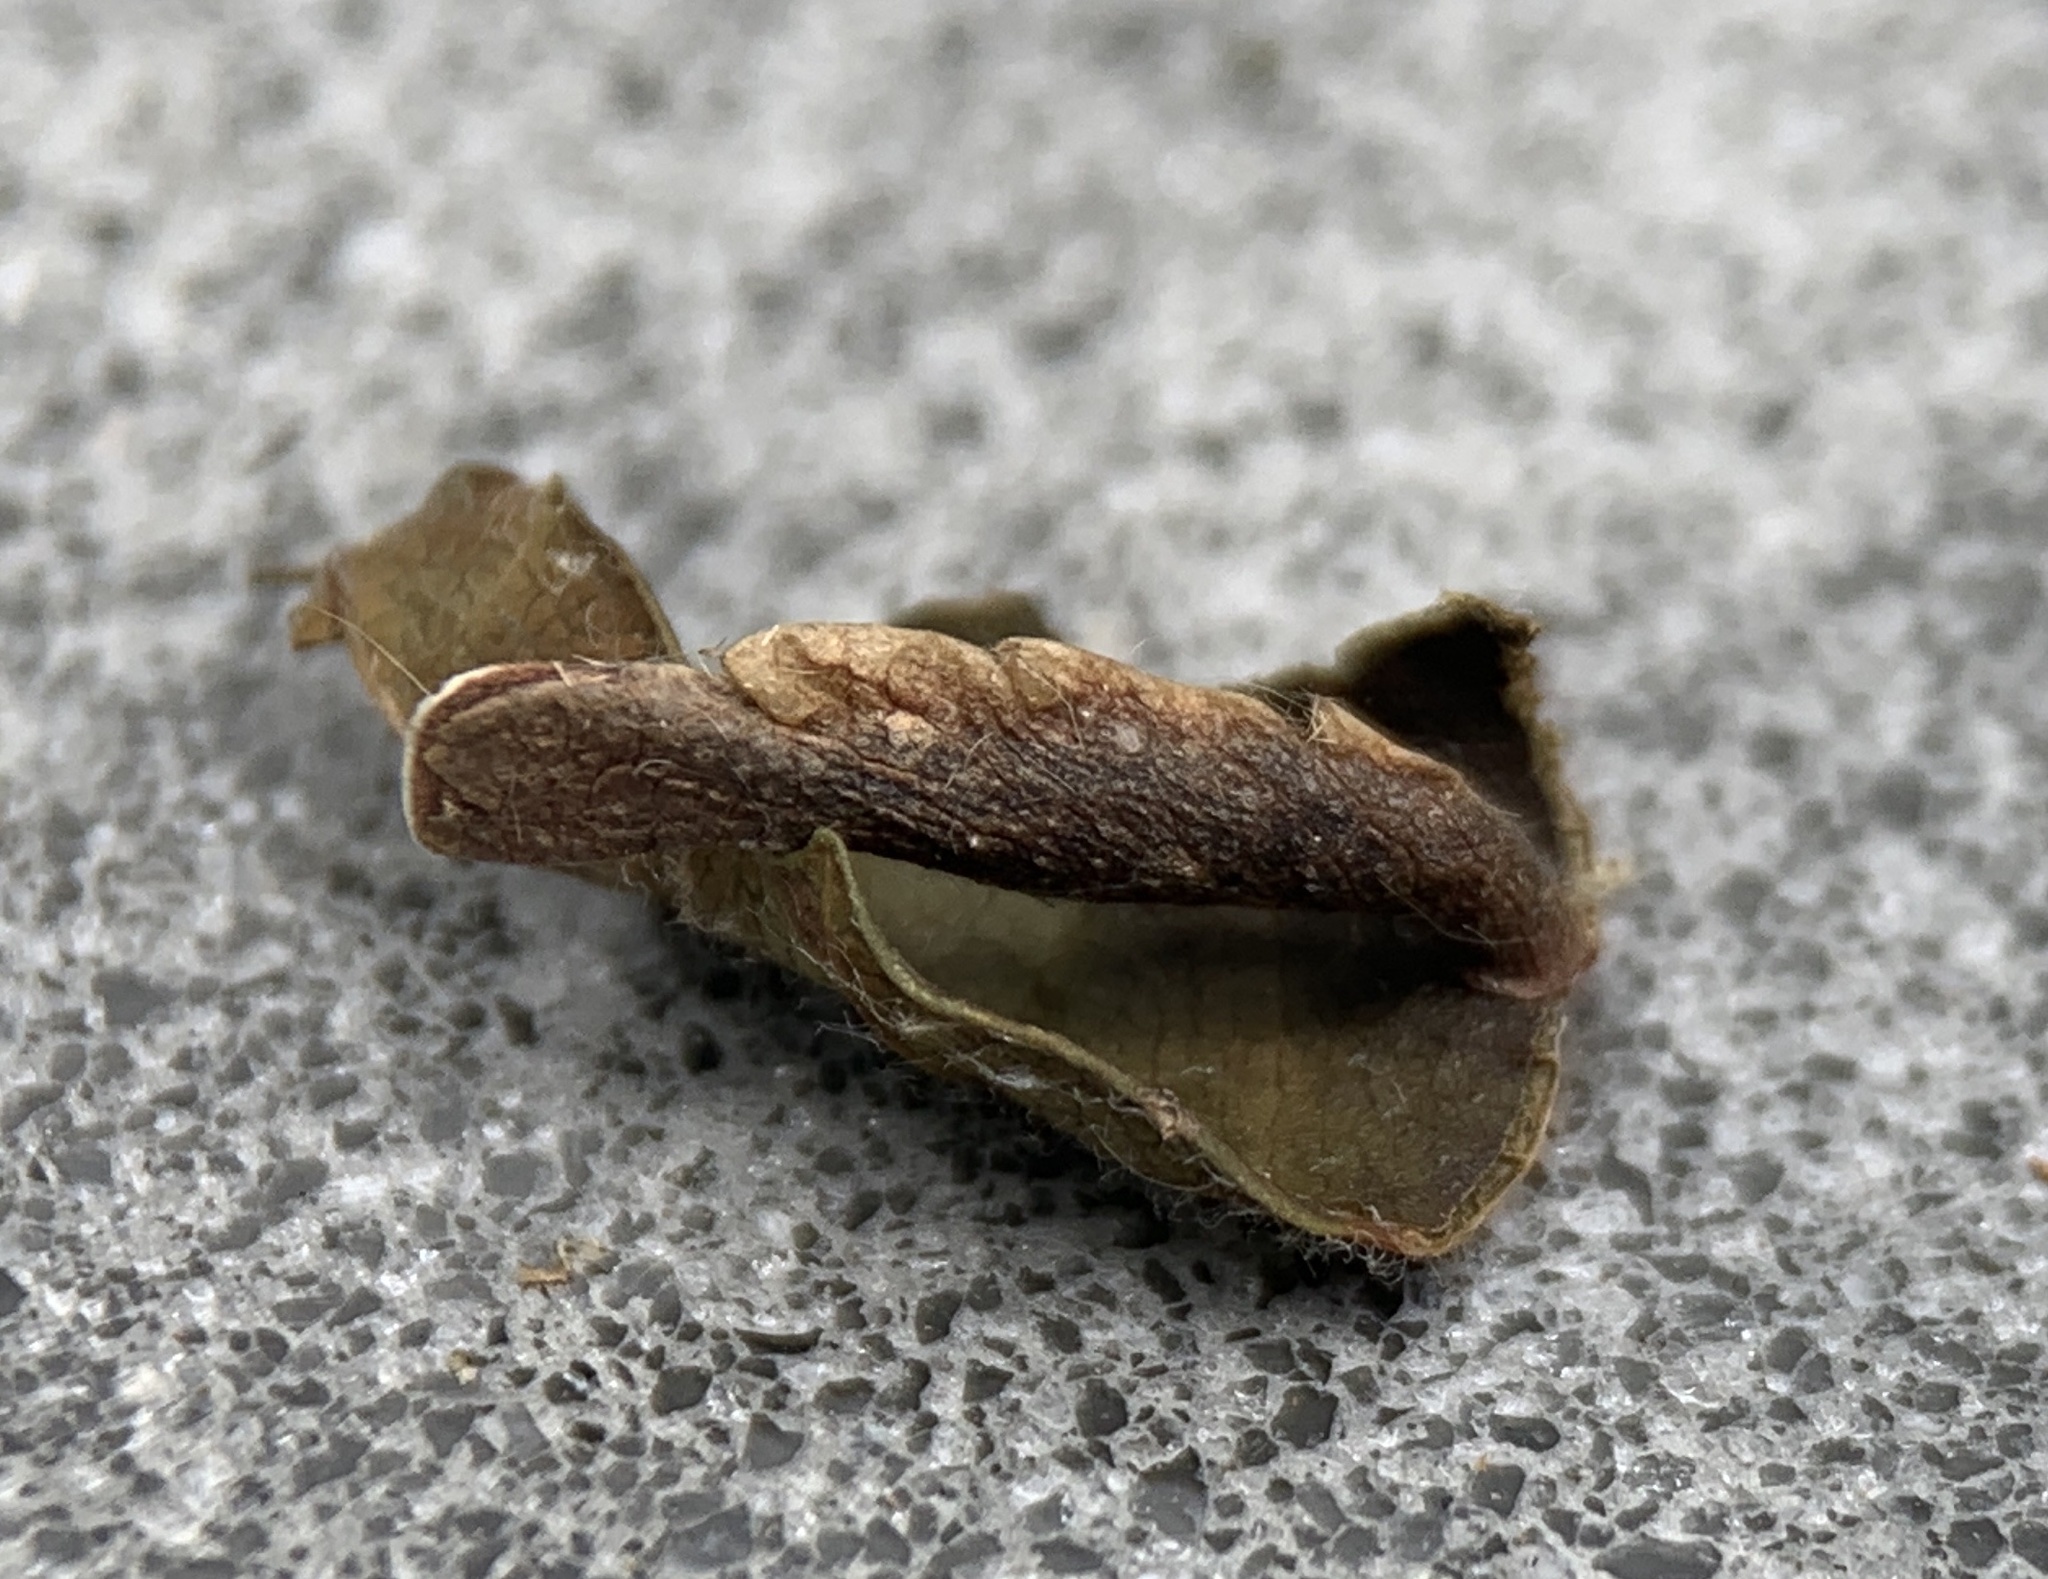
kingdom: Animalia
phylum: Arthropoda
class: Insecta
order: Lepidoptera
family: Coleophoridae
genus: Coleophora
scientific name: Coleophora limosipennella
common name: Dark elm case-bearer
